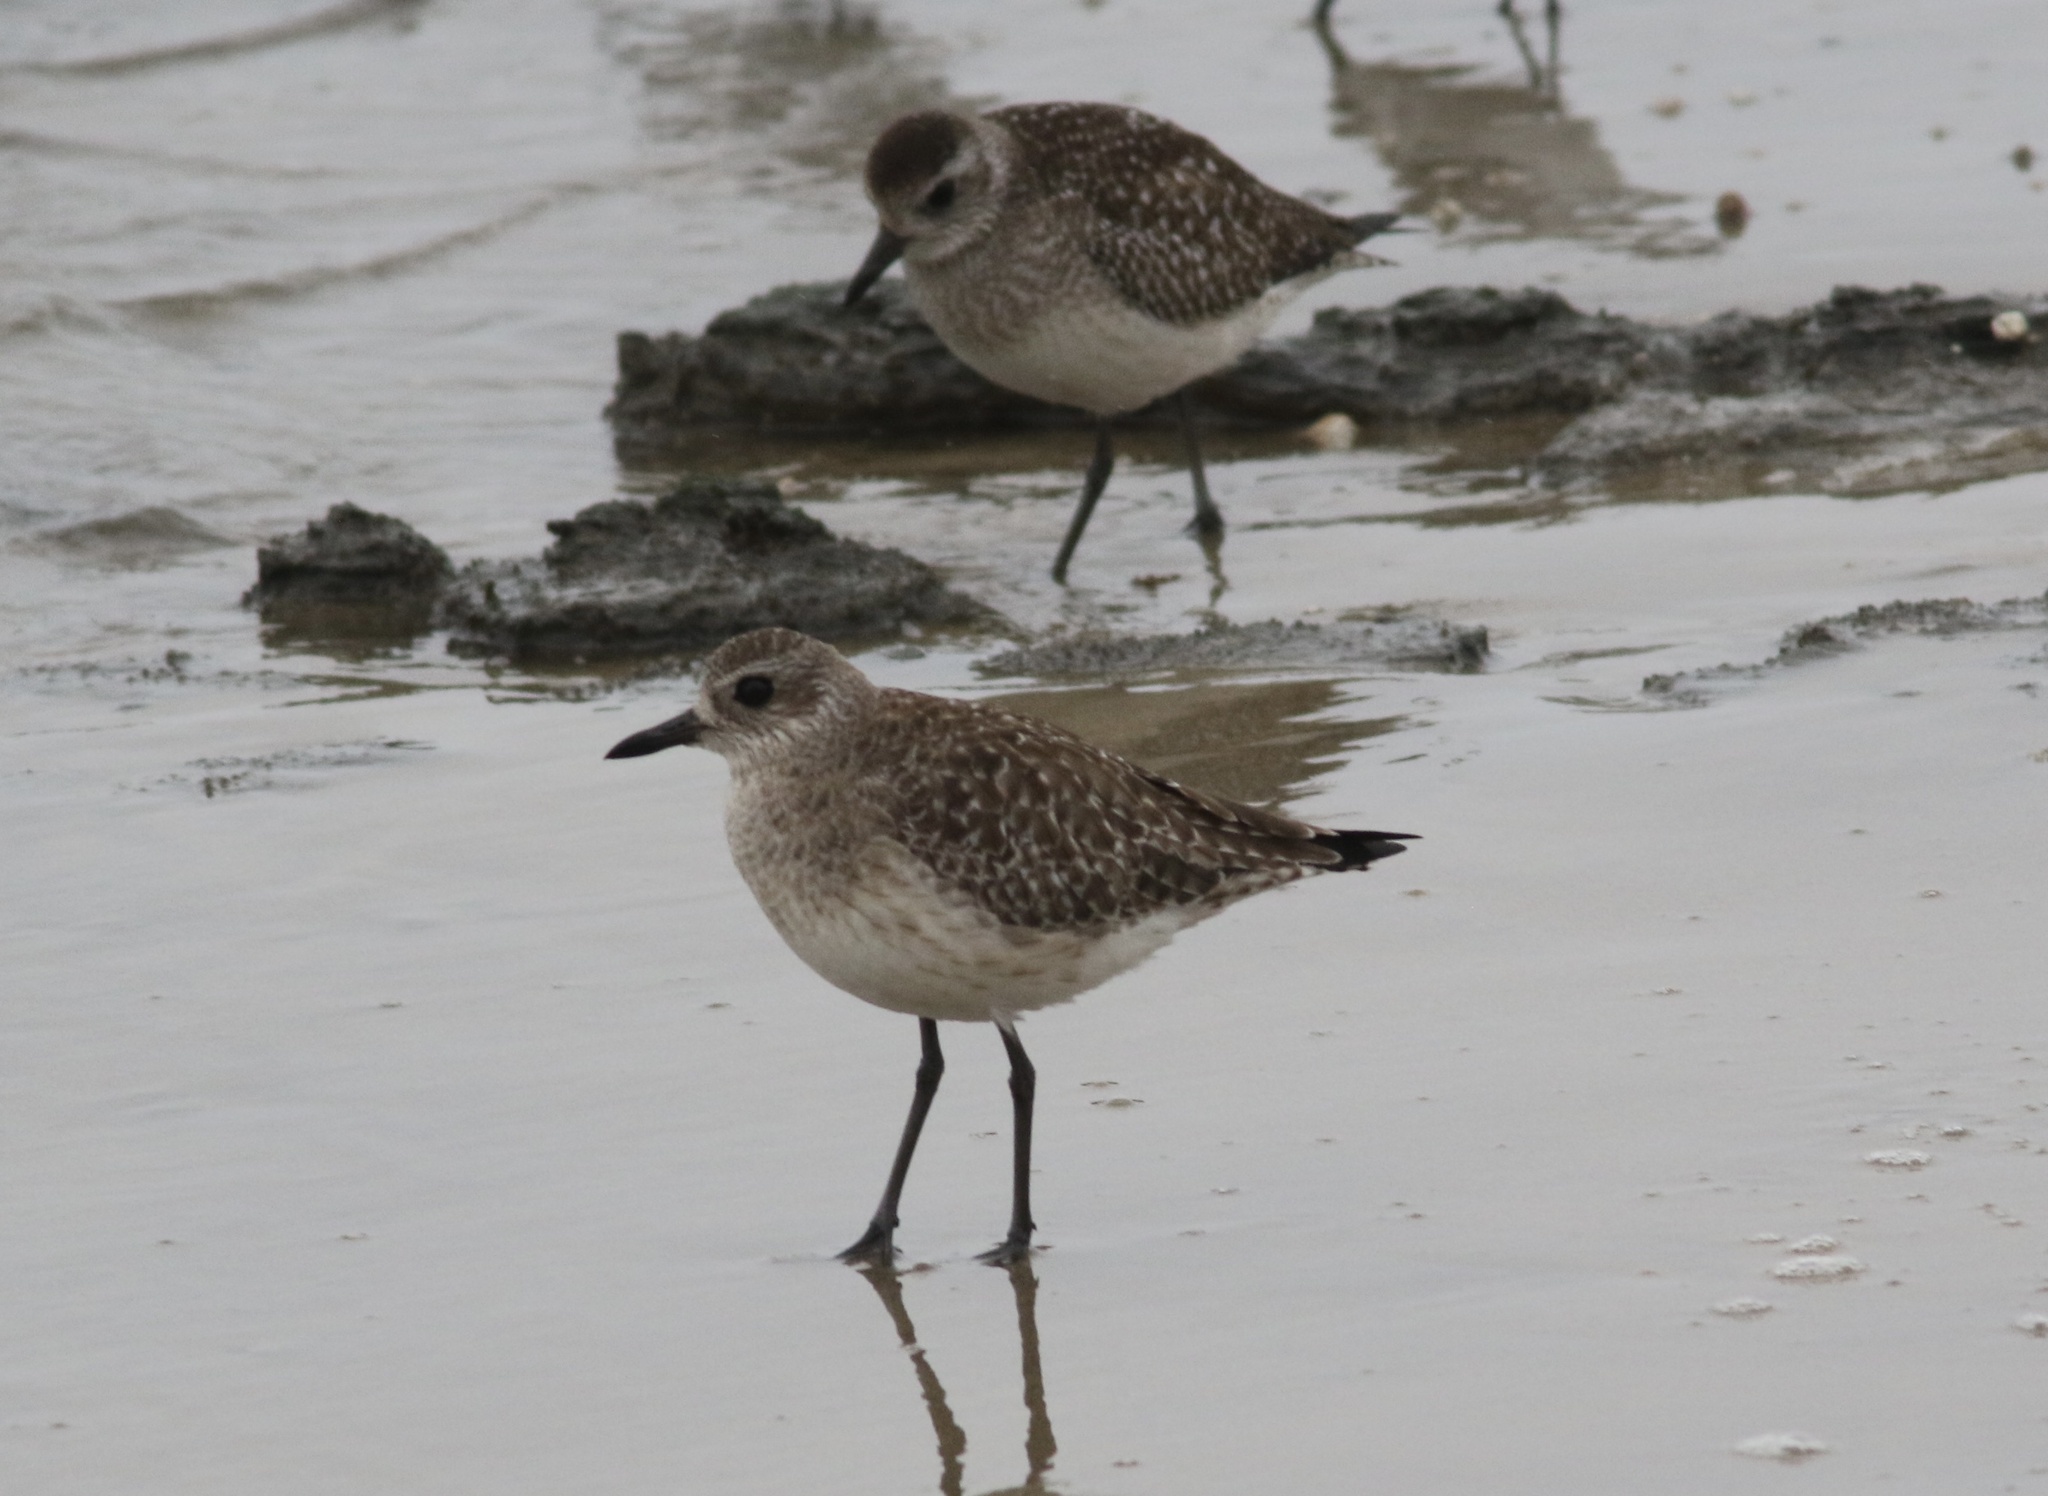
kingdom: Animalia
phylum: Chordata
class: Aves
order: Charadriiformes
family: Charadriidae
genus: Pluvialis
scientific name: Pluvialis squatarola
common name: Grey plover
